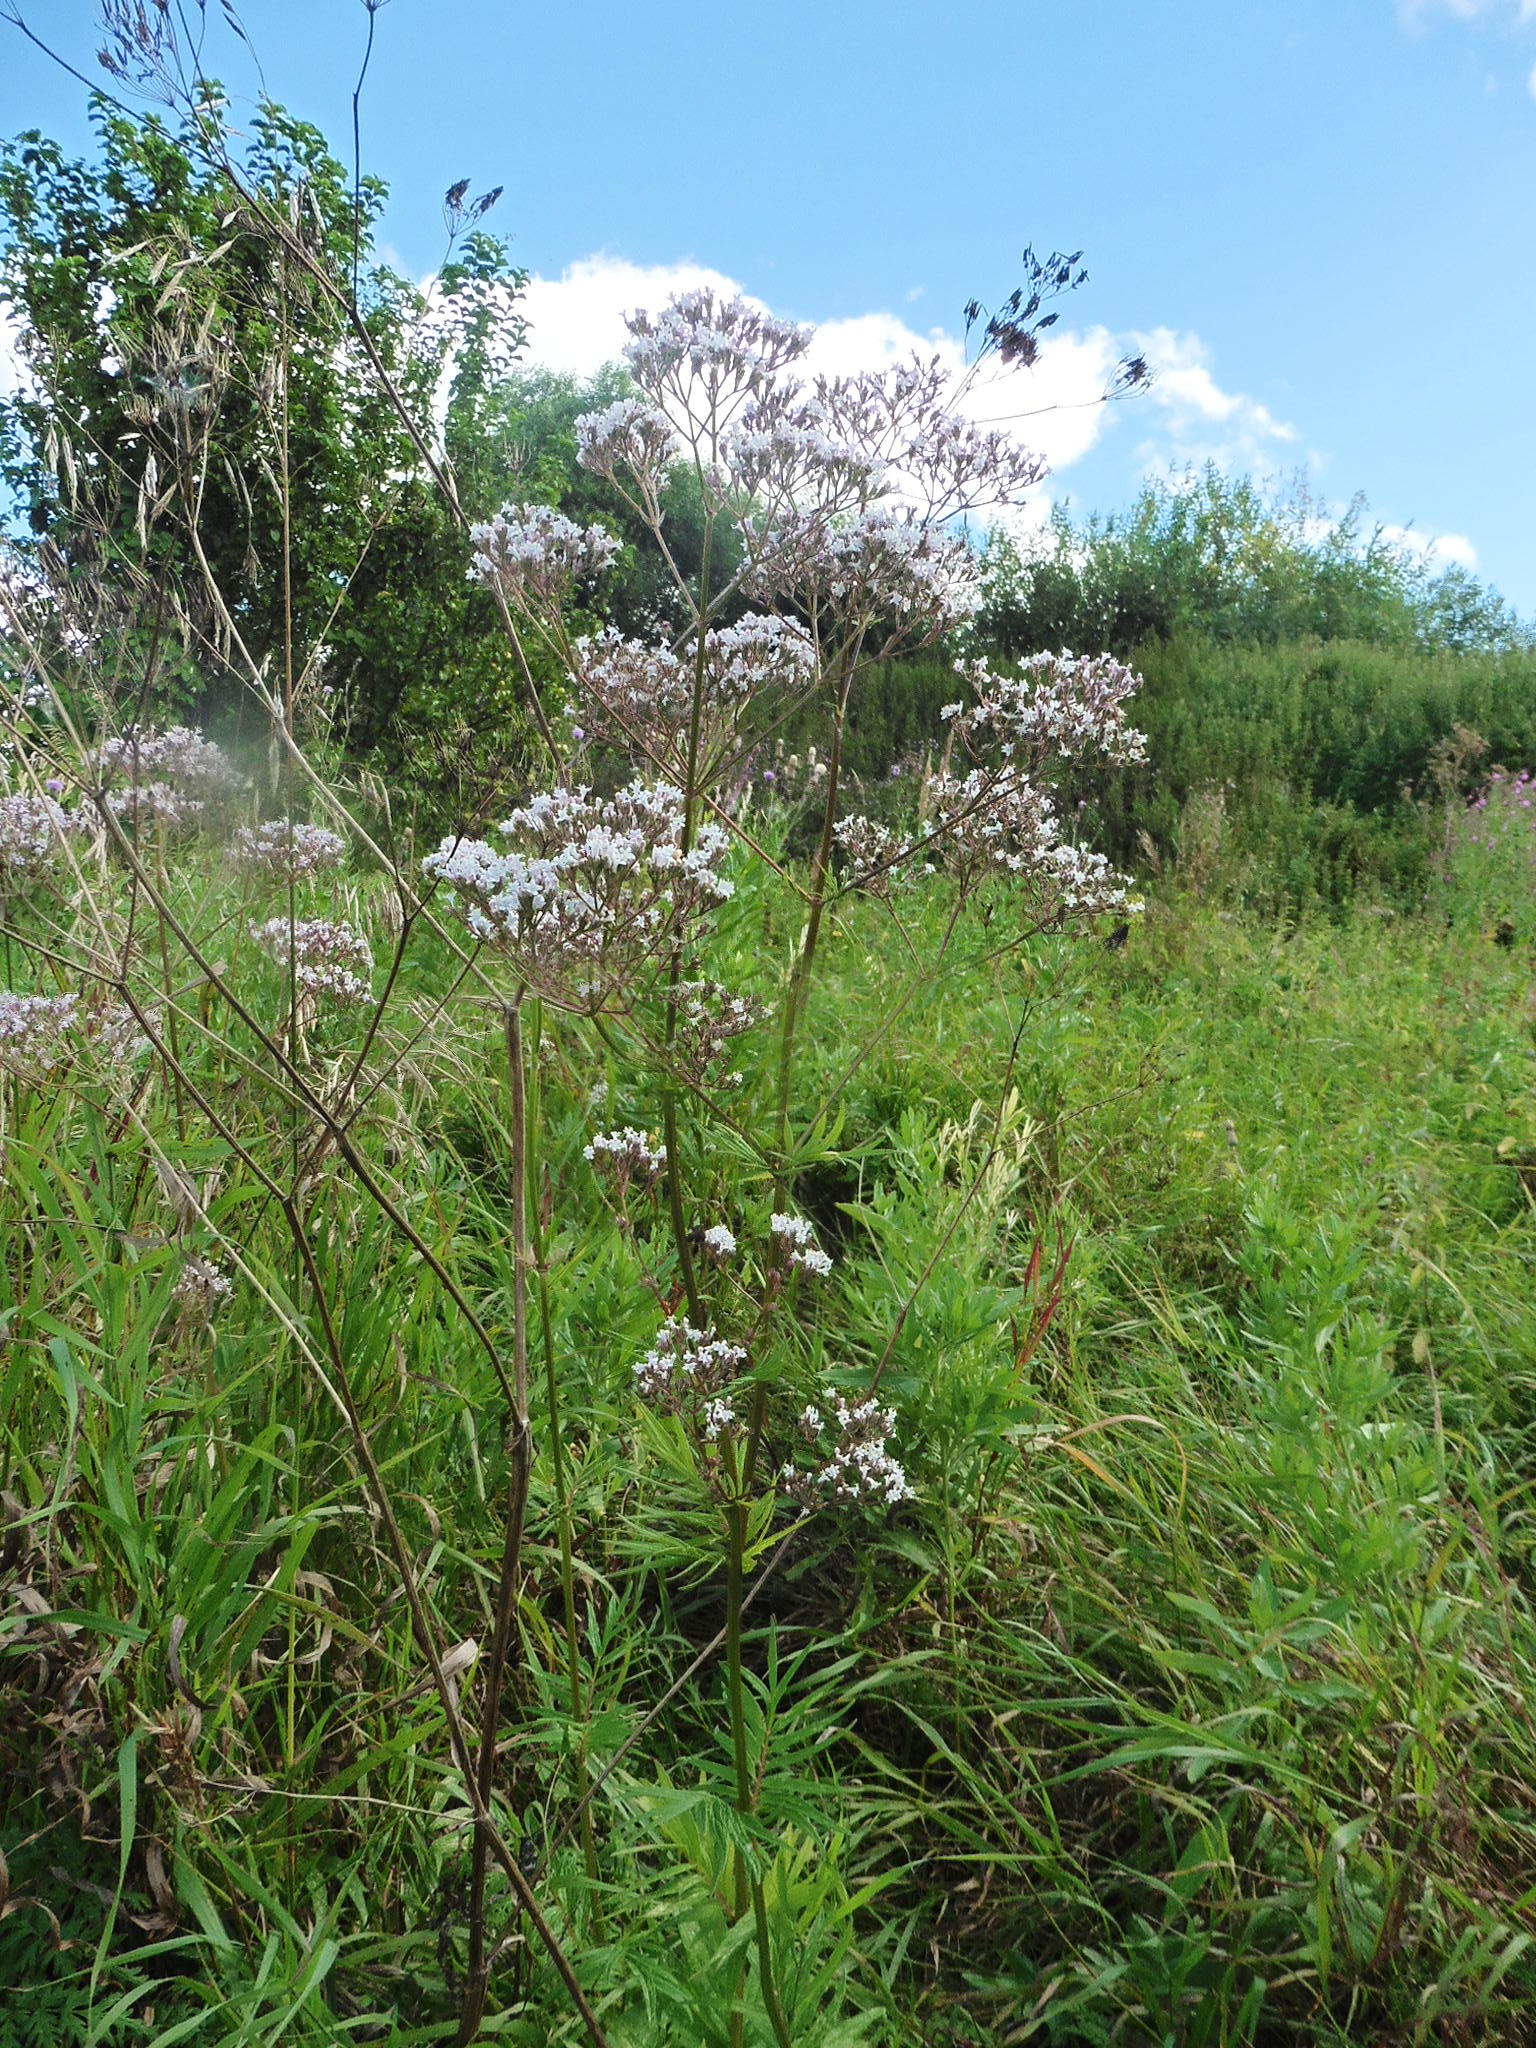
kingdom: Plantae
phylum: Tracheophyta
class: Magnoliopsida
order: Dipsacales
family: Caprifoliaceae
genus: Valeriana
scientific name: Valeriana officinalis
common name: Common valerian
